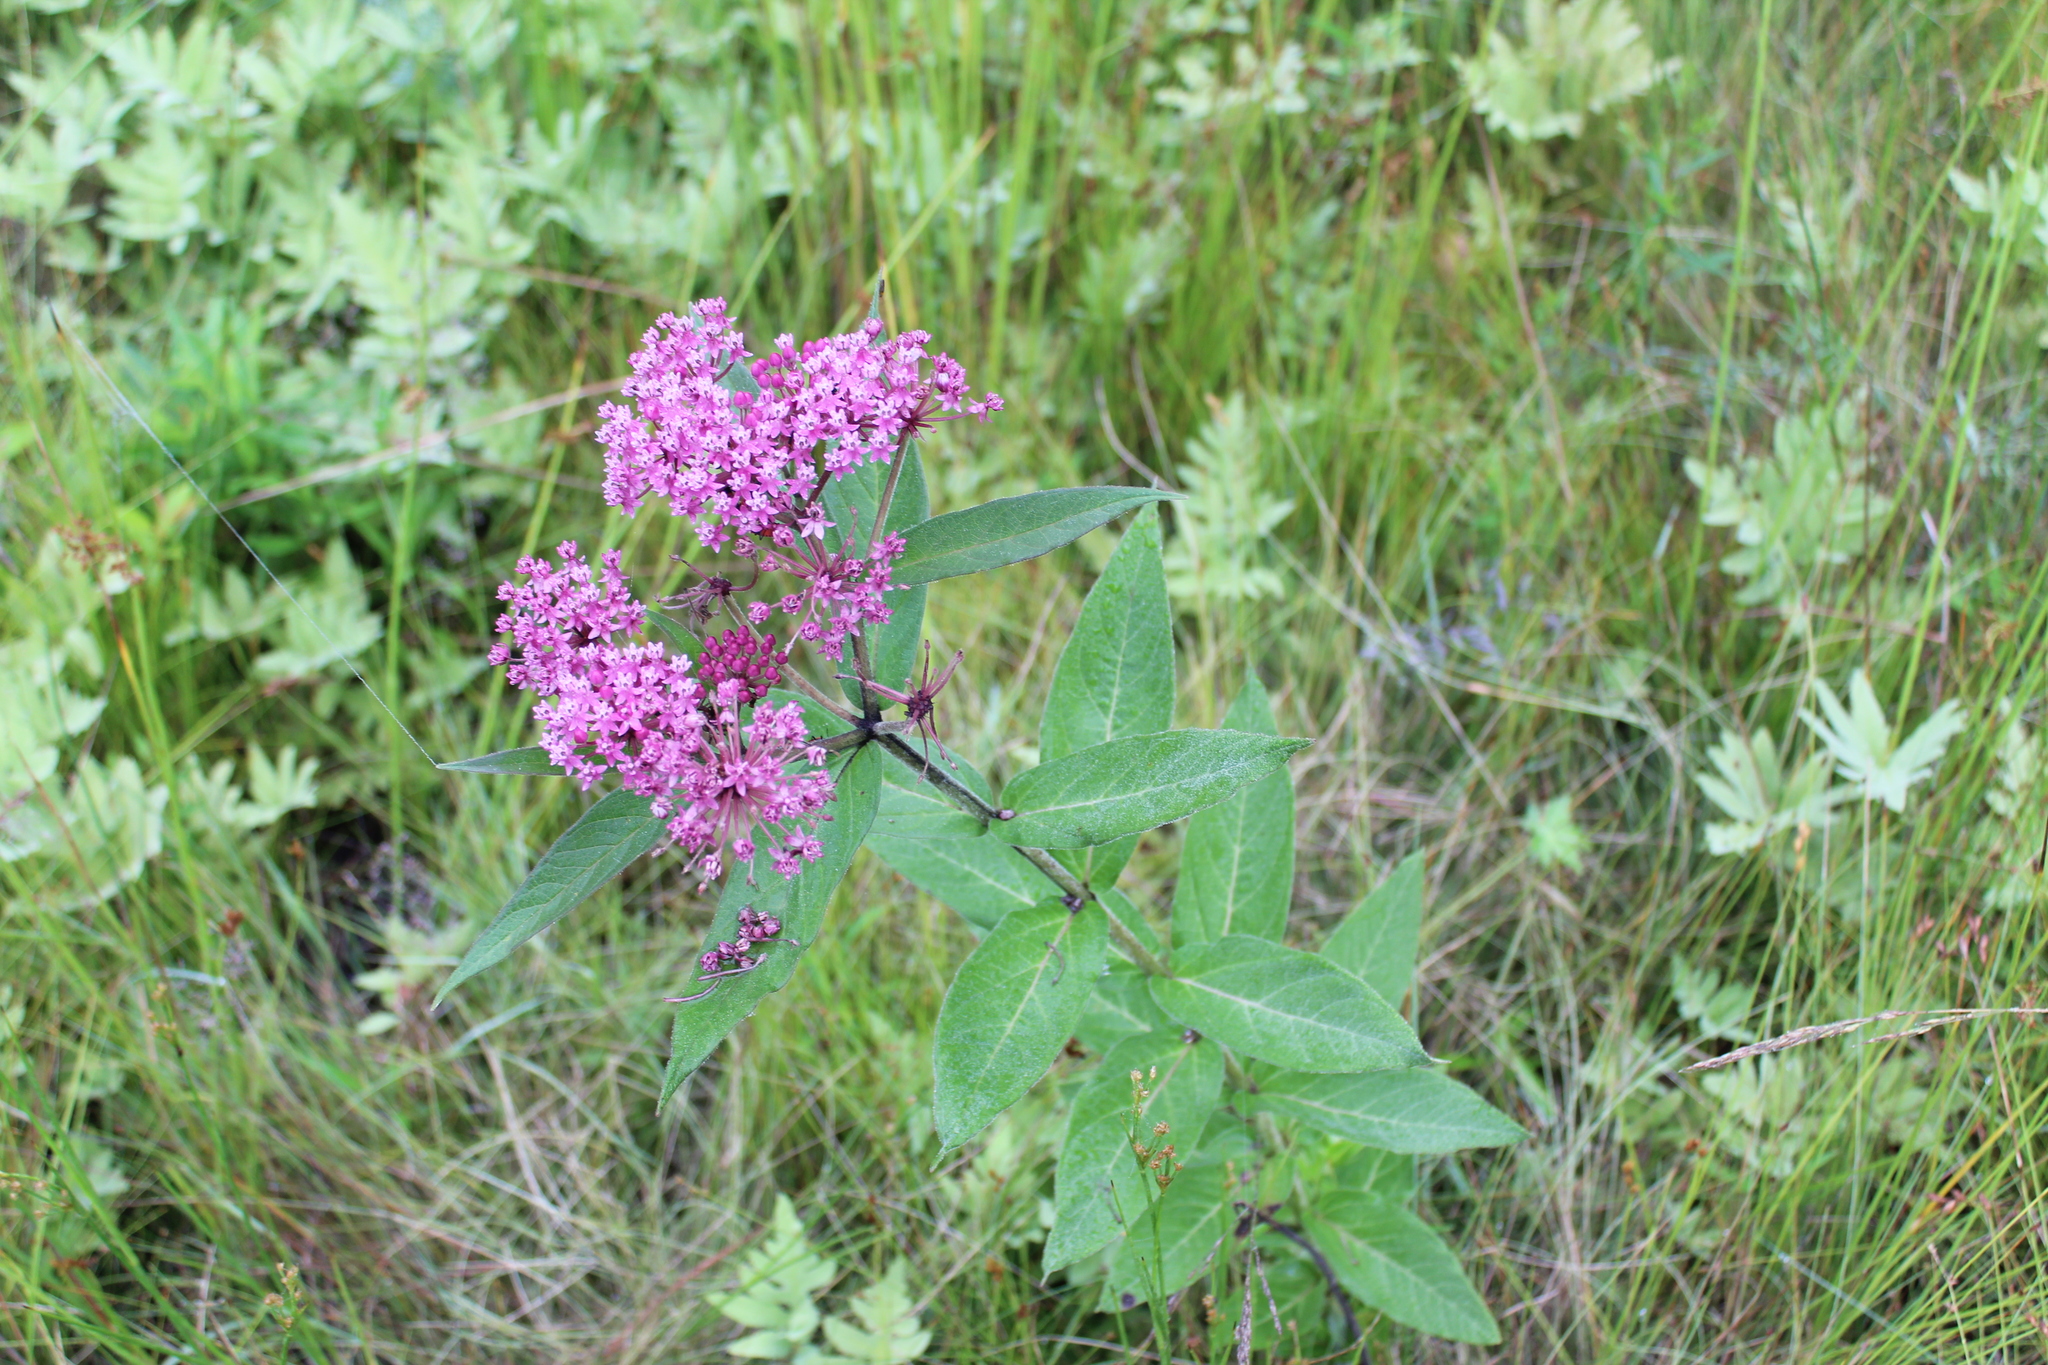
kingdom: Plantae
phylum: Tracheophyta
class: Magnoliopsida
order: Gentianales
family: Apocynaceae
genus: Asclepias
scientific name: Asclepias incarnata
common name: Swamp milkweed
